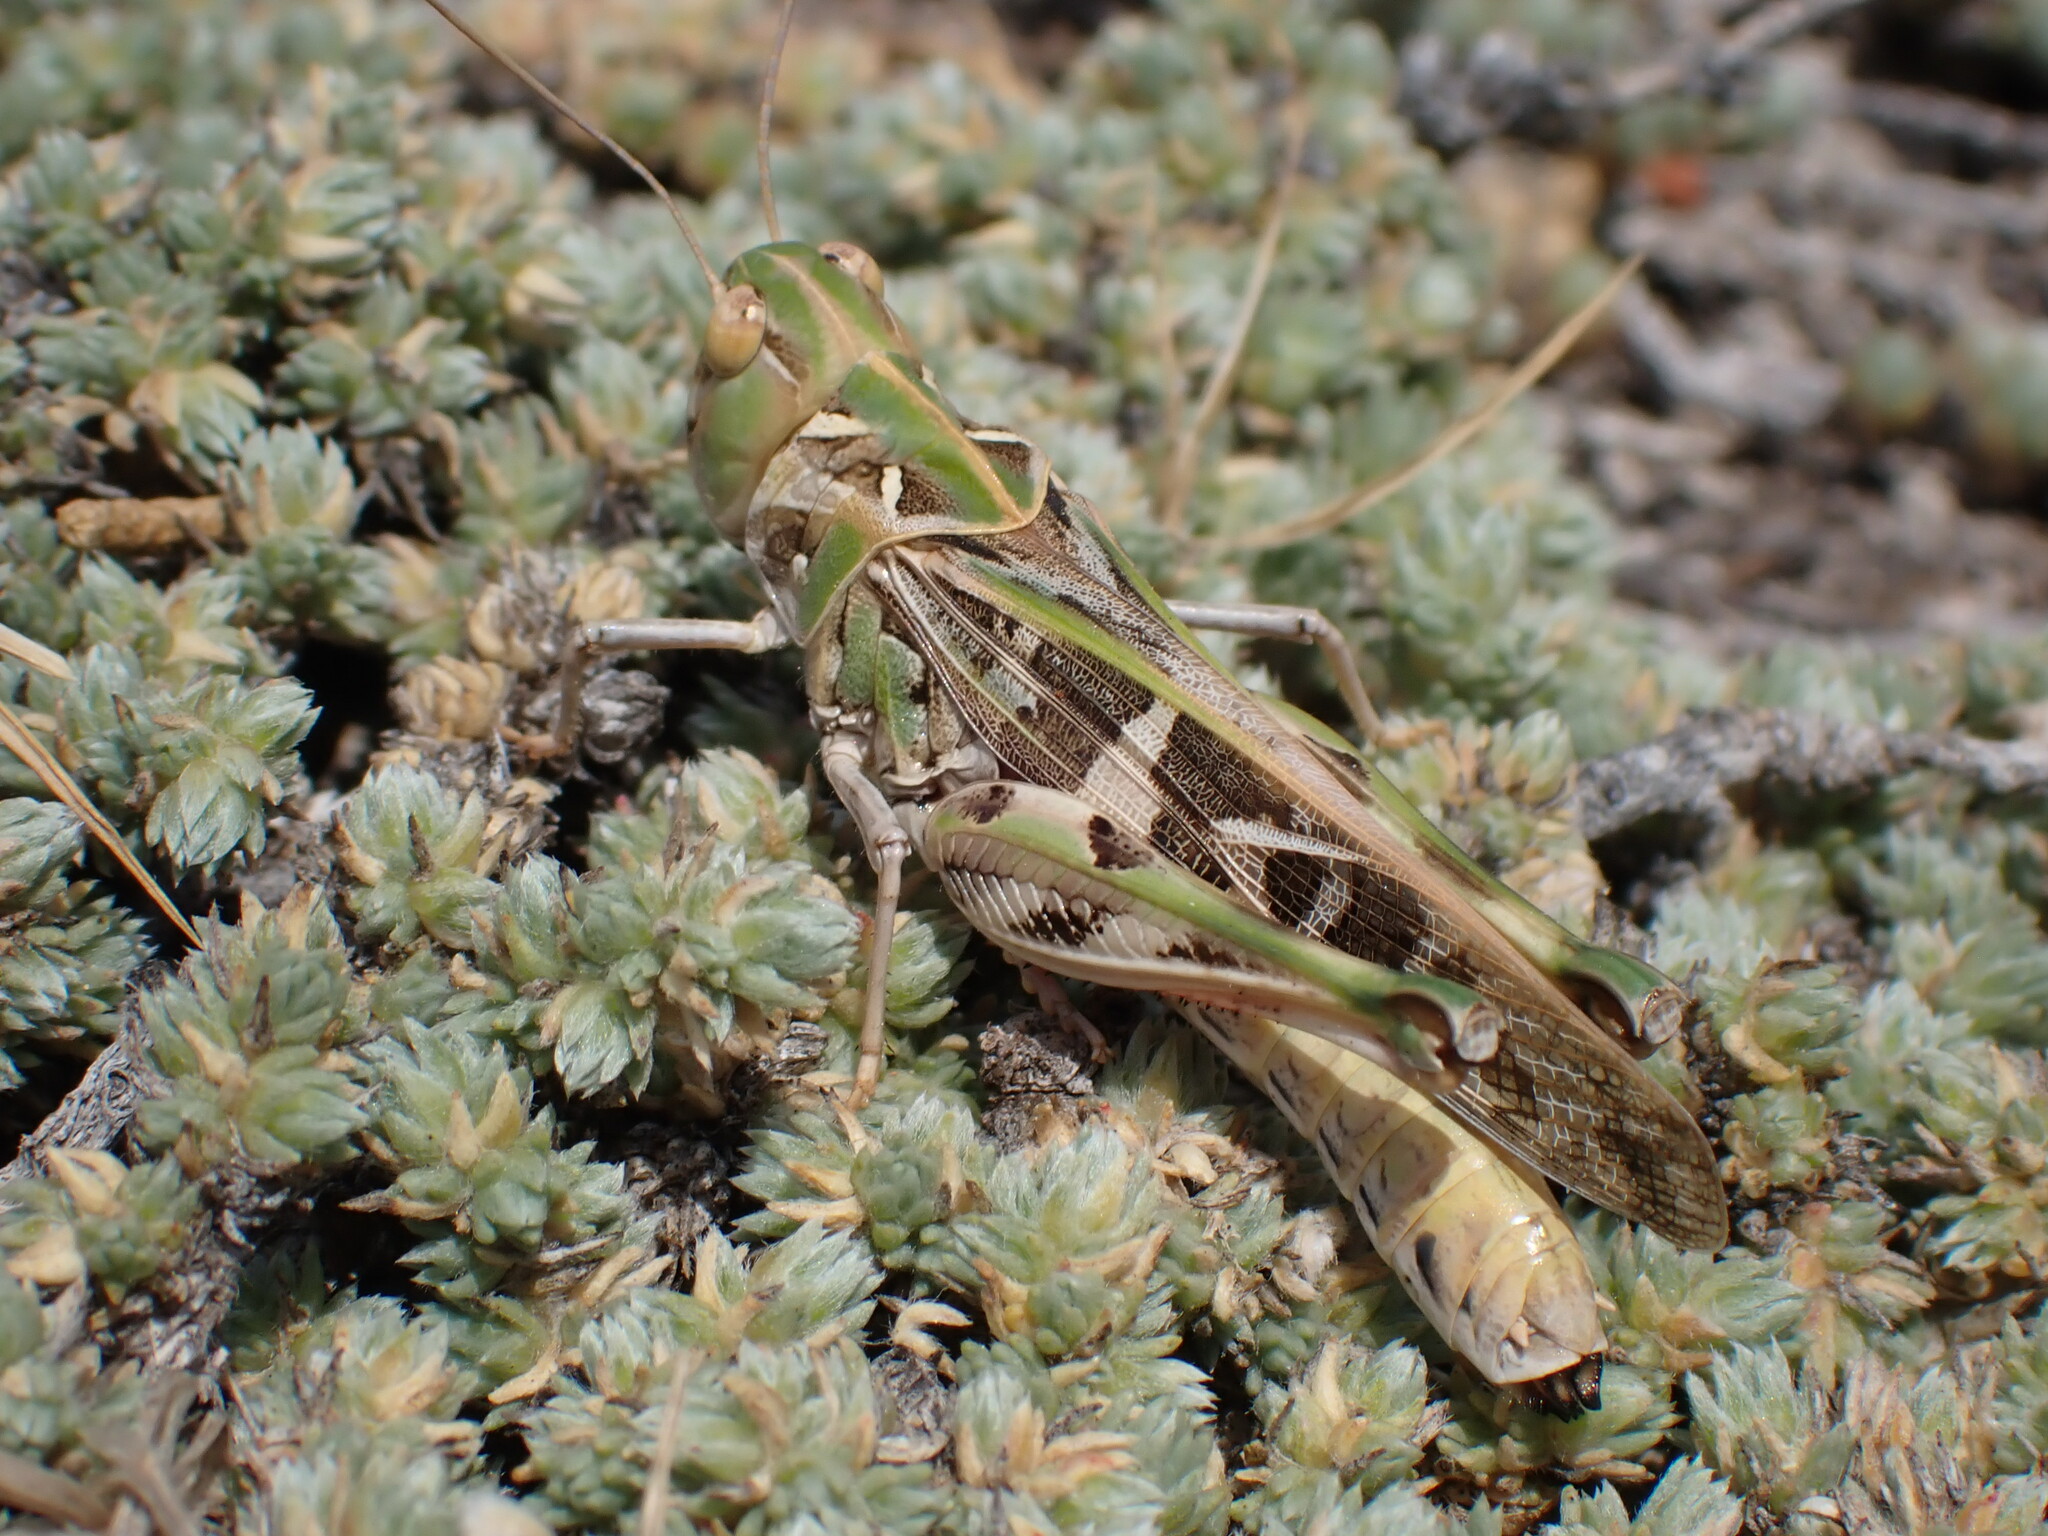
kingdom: Animalia
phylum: Arthropoda
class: Insecta
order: Orthoptera
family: Acrididae
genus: Oedaleus
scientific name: Oedaleus decorus
